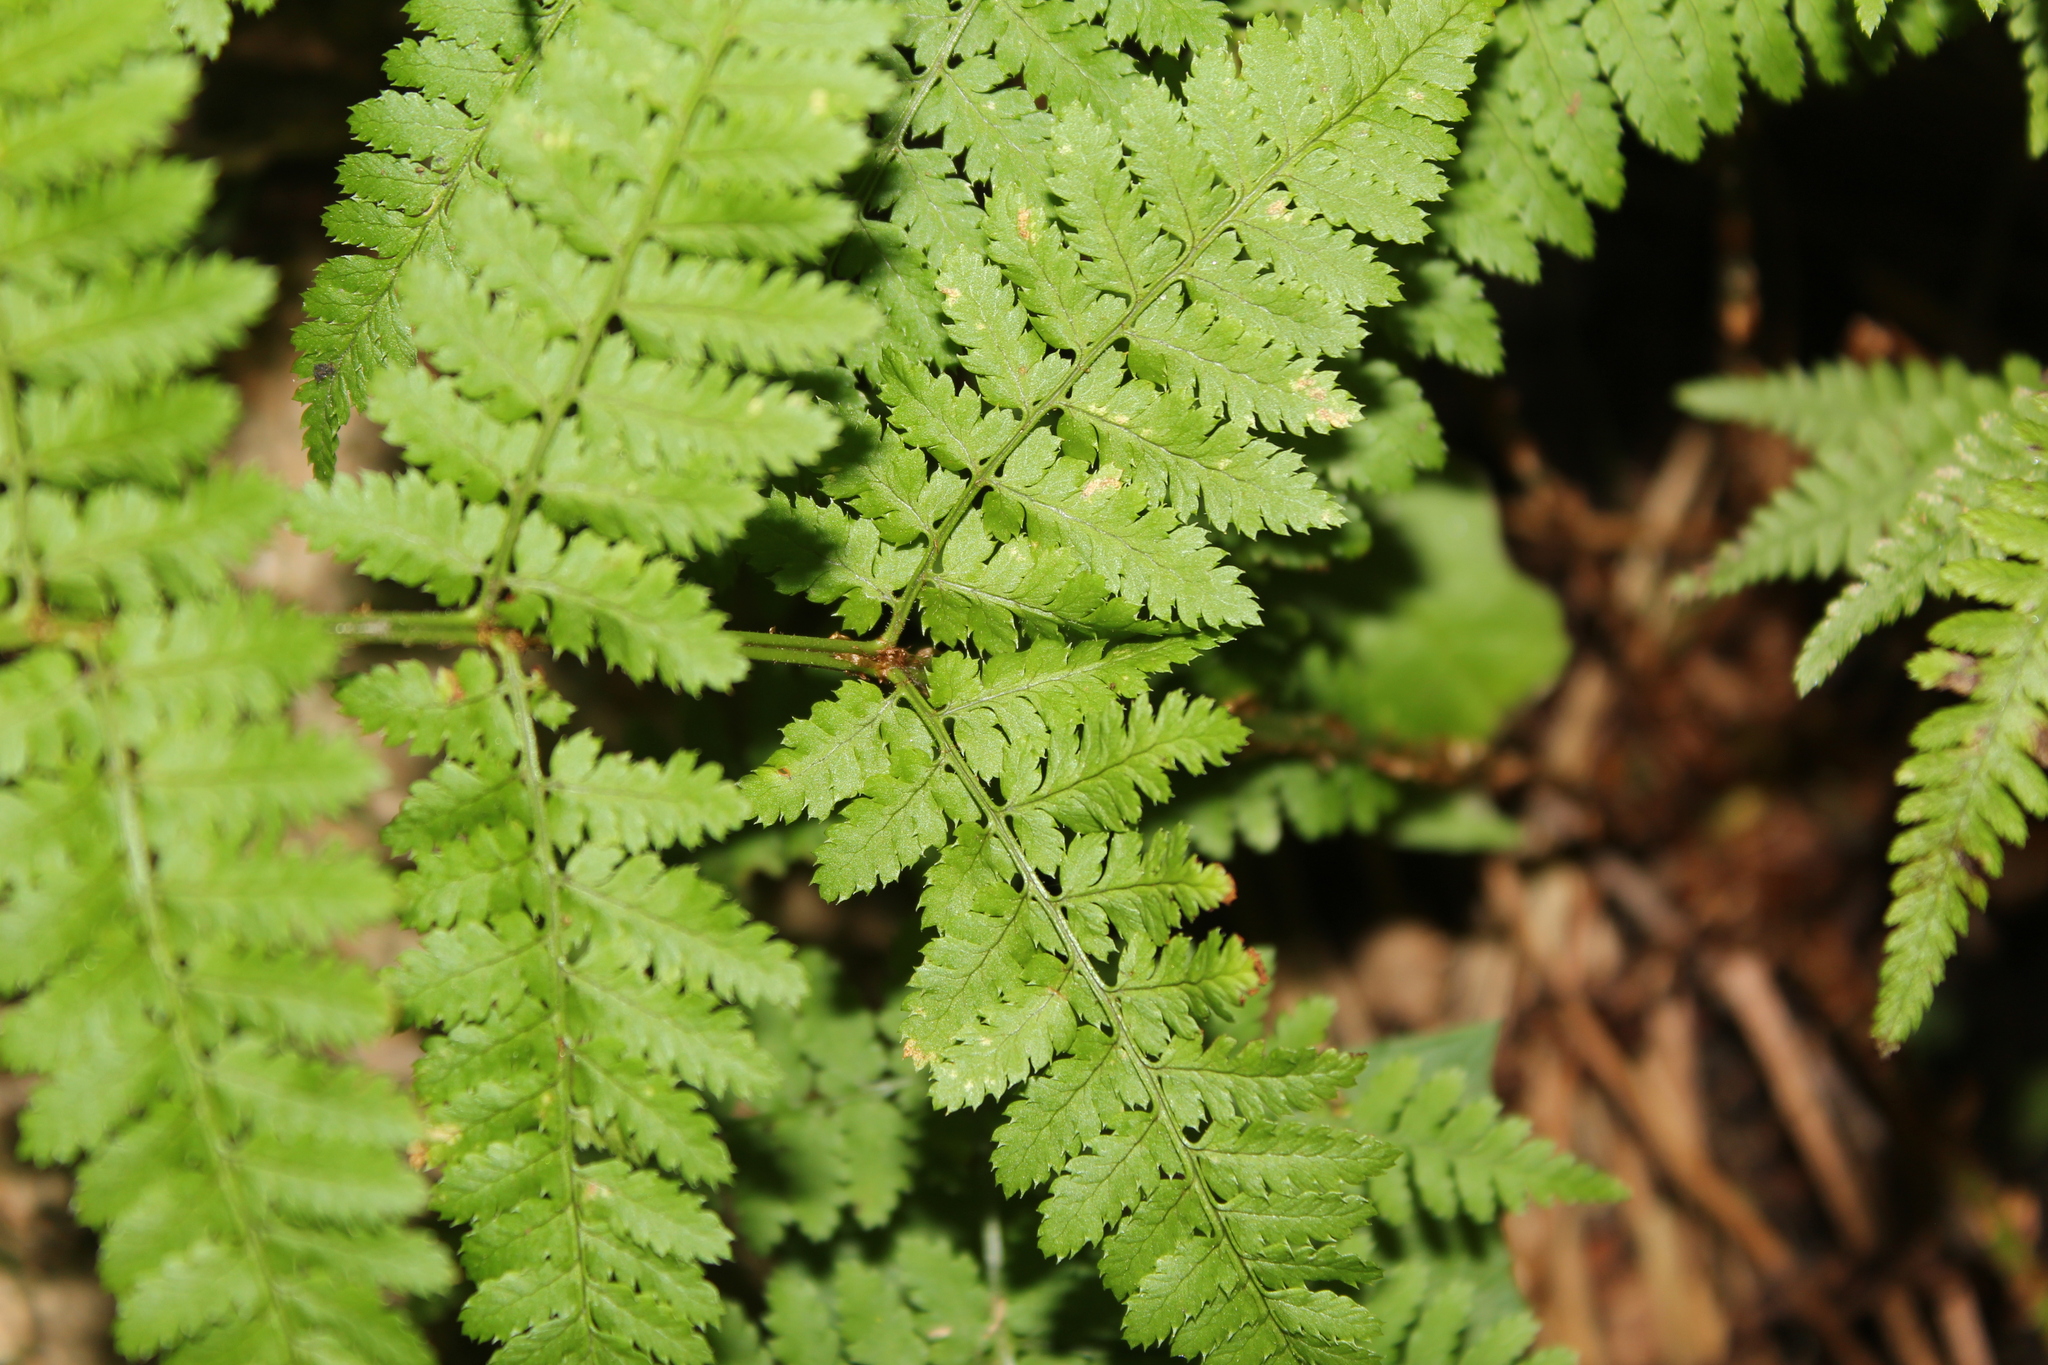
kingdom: Plantae
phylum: Tracheophyta
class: Polypodiopsida
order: Polypodiales
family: Dryopteridaceae
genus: Dryopteris
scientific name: Dryopteris intermedia
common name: Evergreen wood fern
